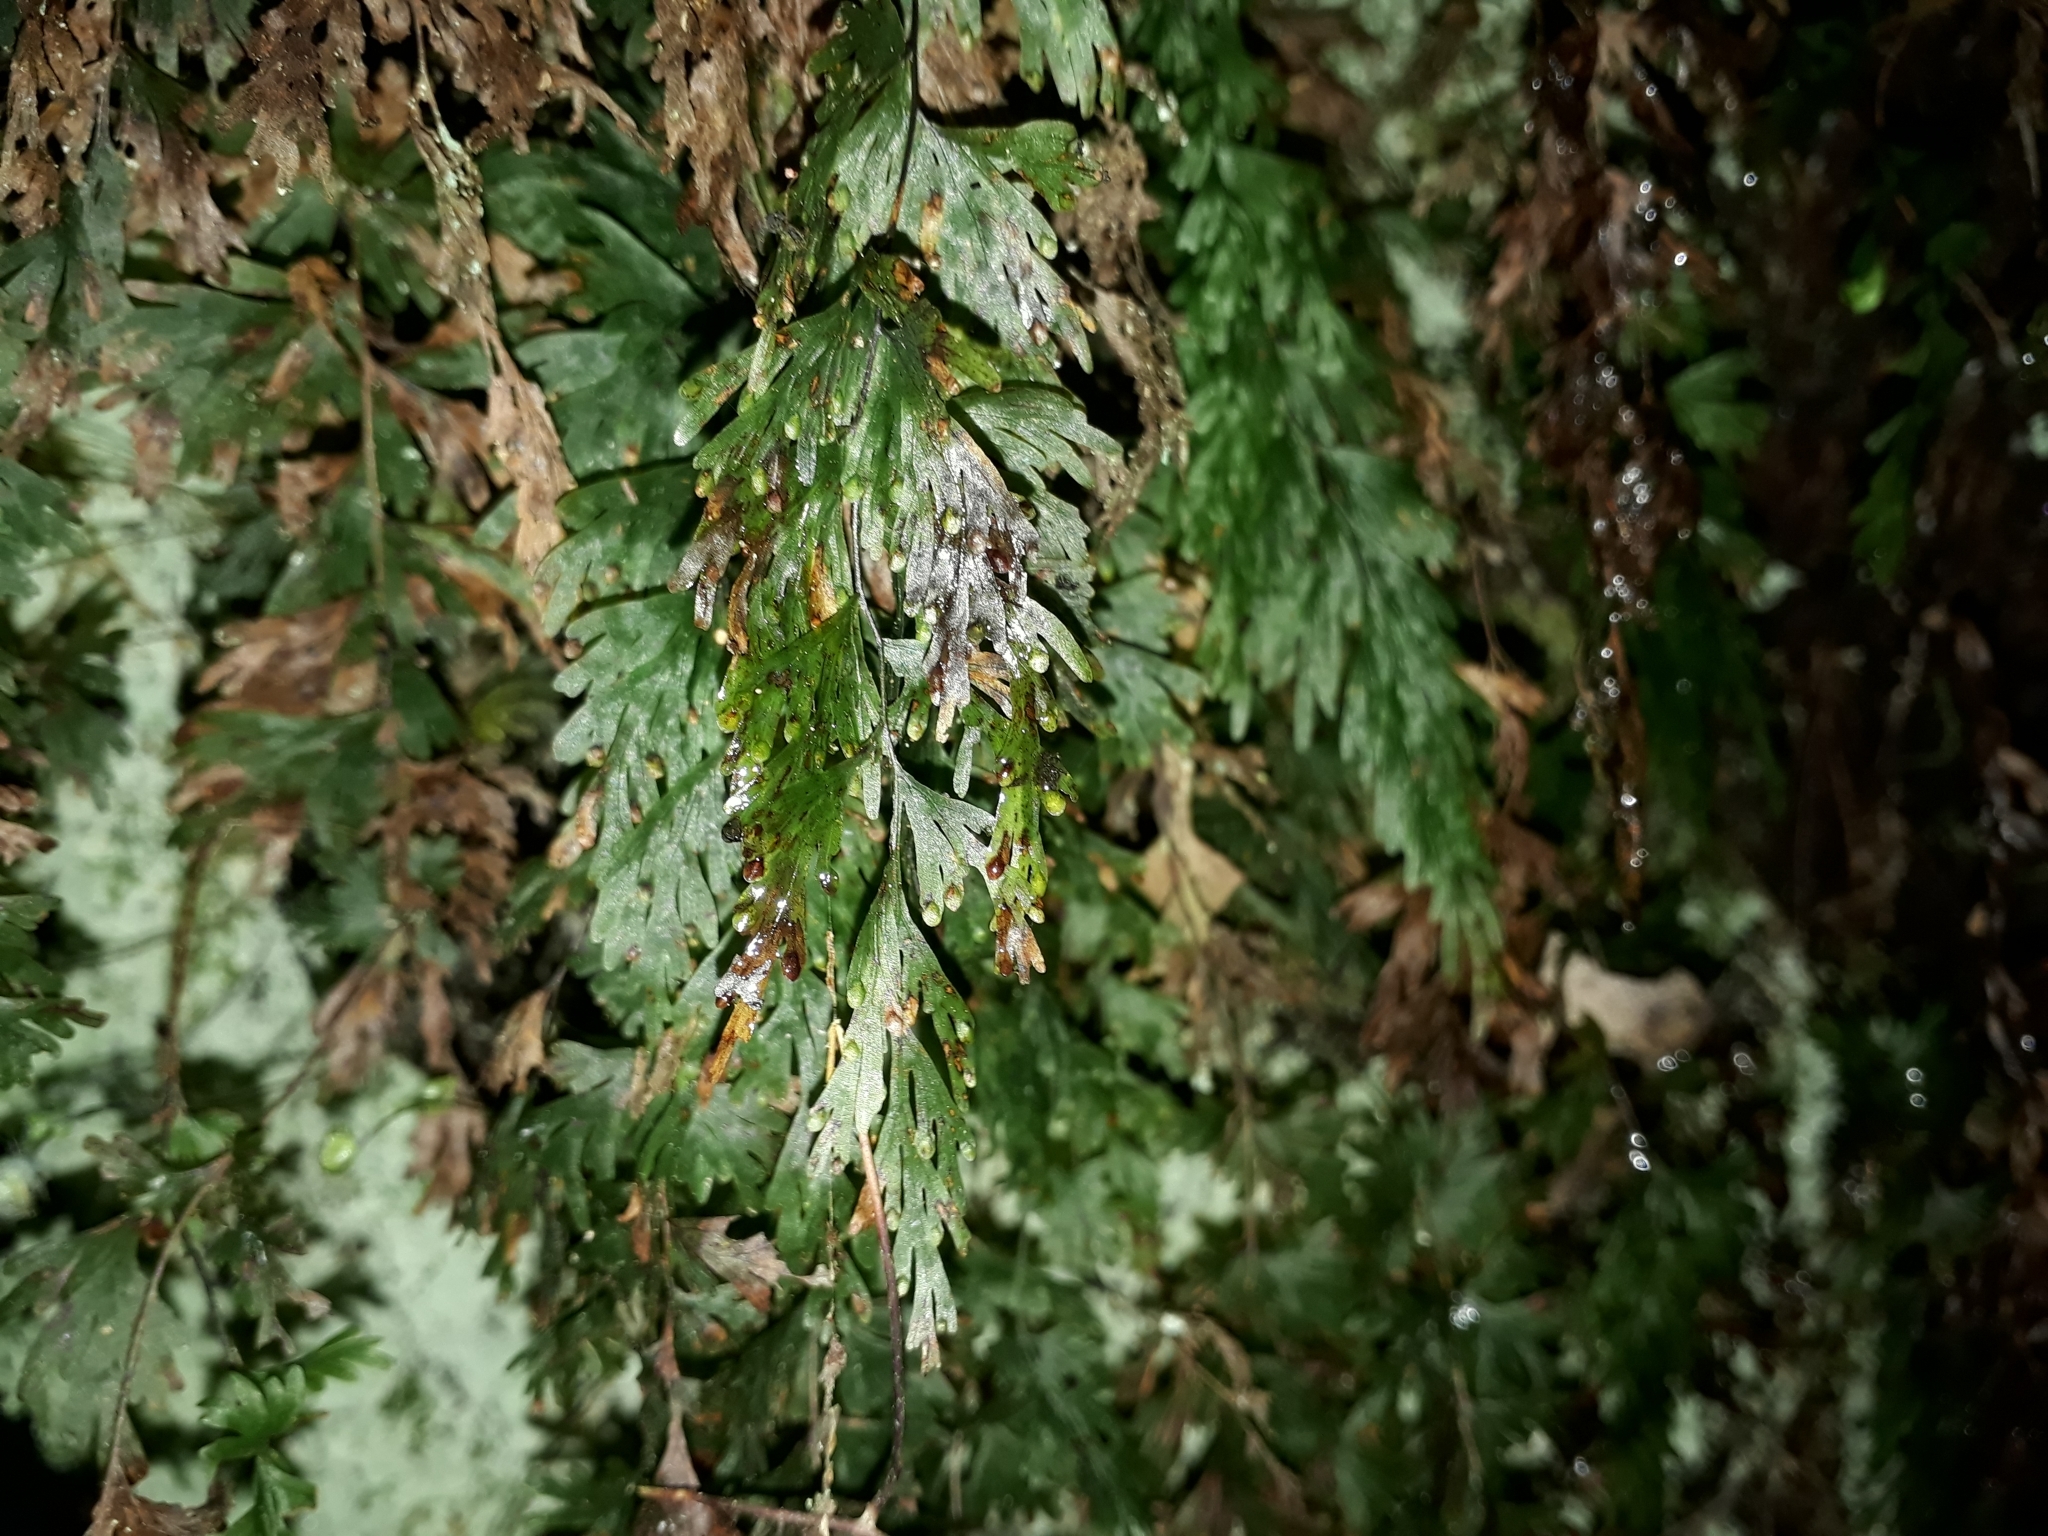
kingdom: Plantae
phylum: Tracheophyta
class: Polypodiopsida
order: Hymenophyllales
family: Hymenophyllaceae
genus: Hymenophyllum
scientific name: Hymenophyllum flabellatum
